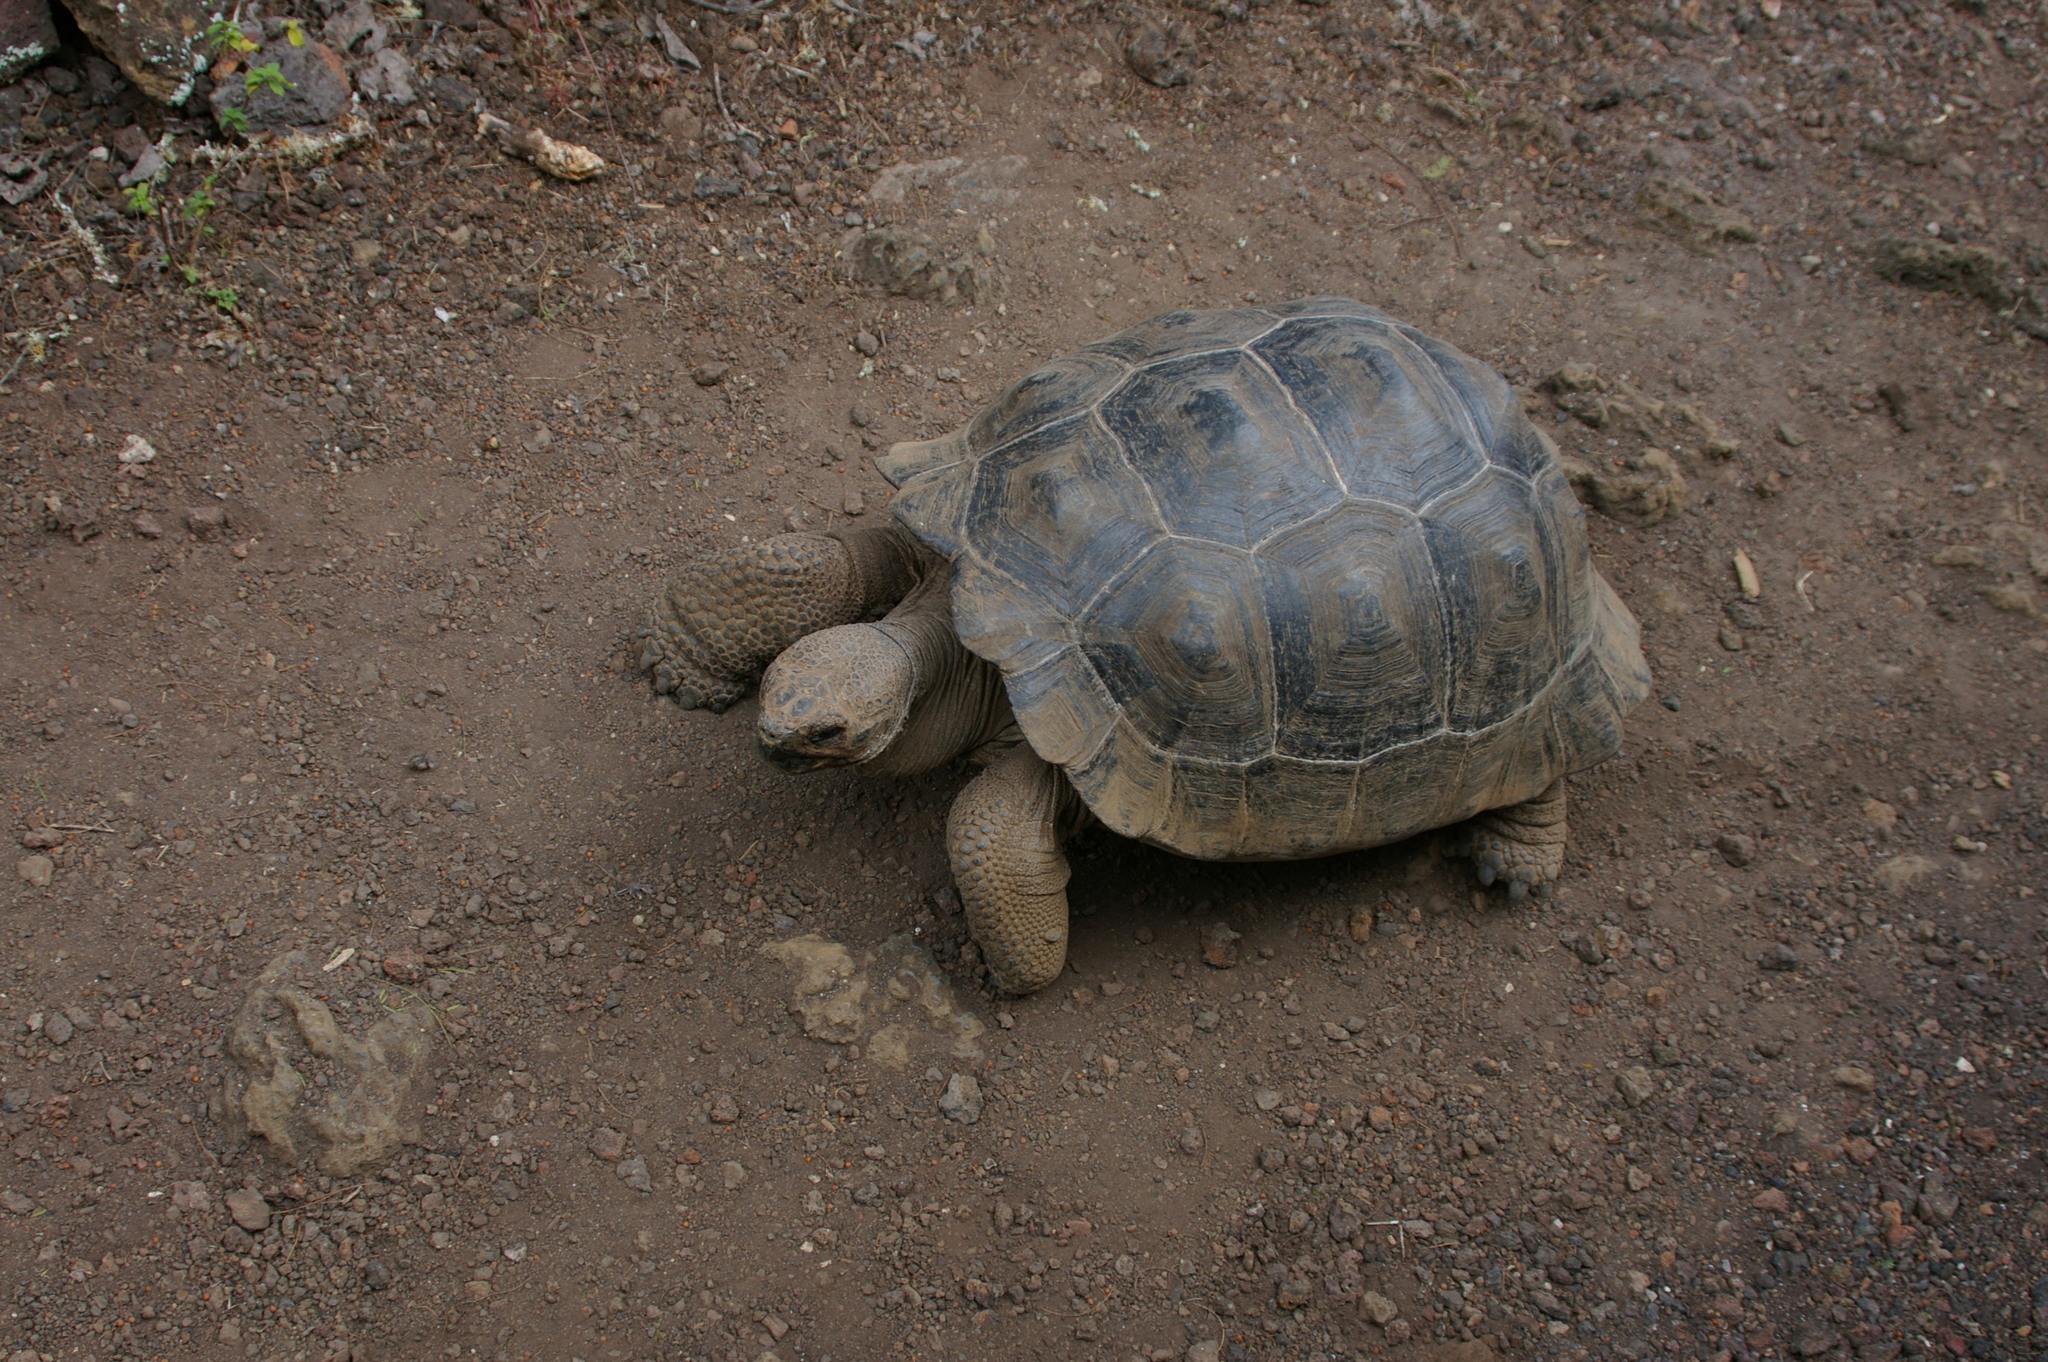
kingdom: Animalia
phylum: Chordata
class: Testudines
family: Testudinidae
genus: Chelonoidis
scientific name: Chelonoidis guntheri
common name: Sierra negra giant tortoise
